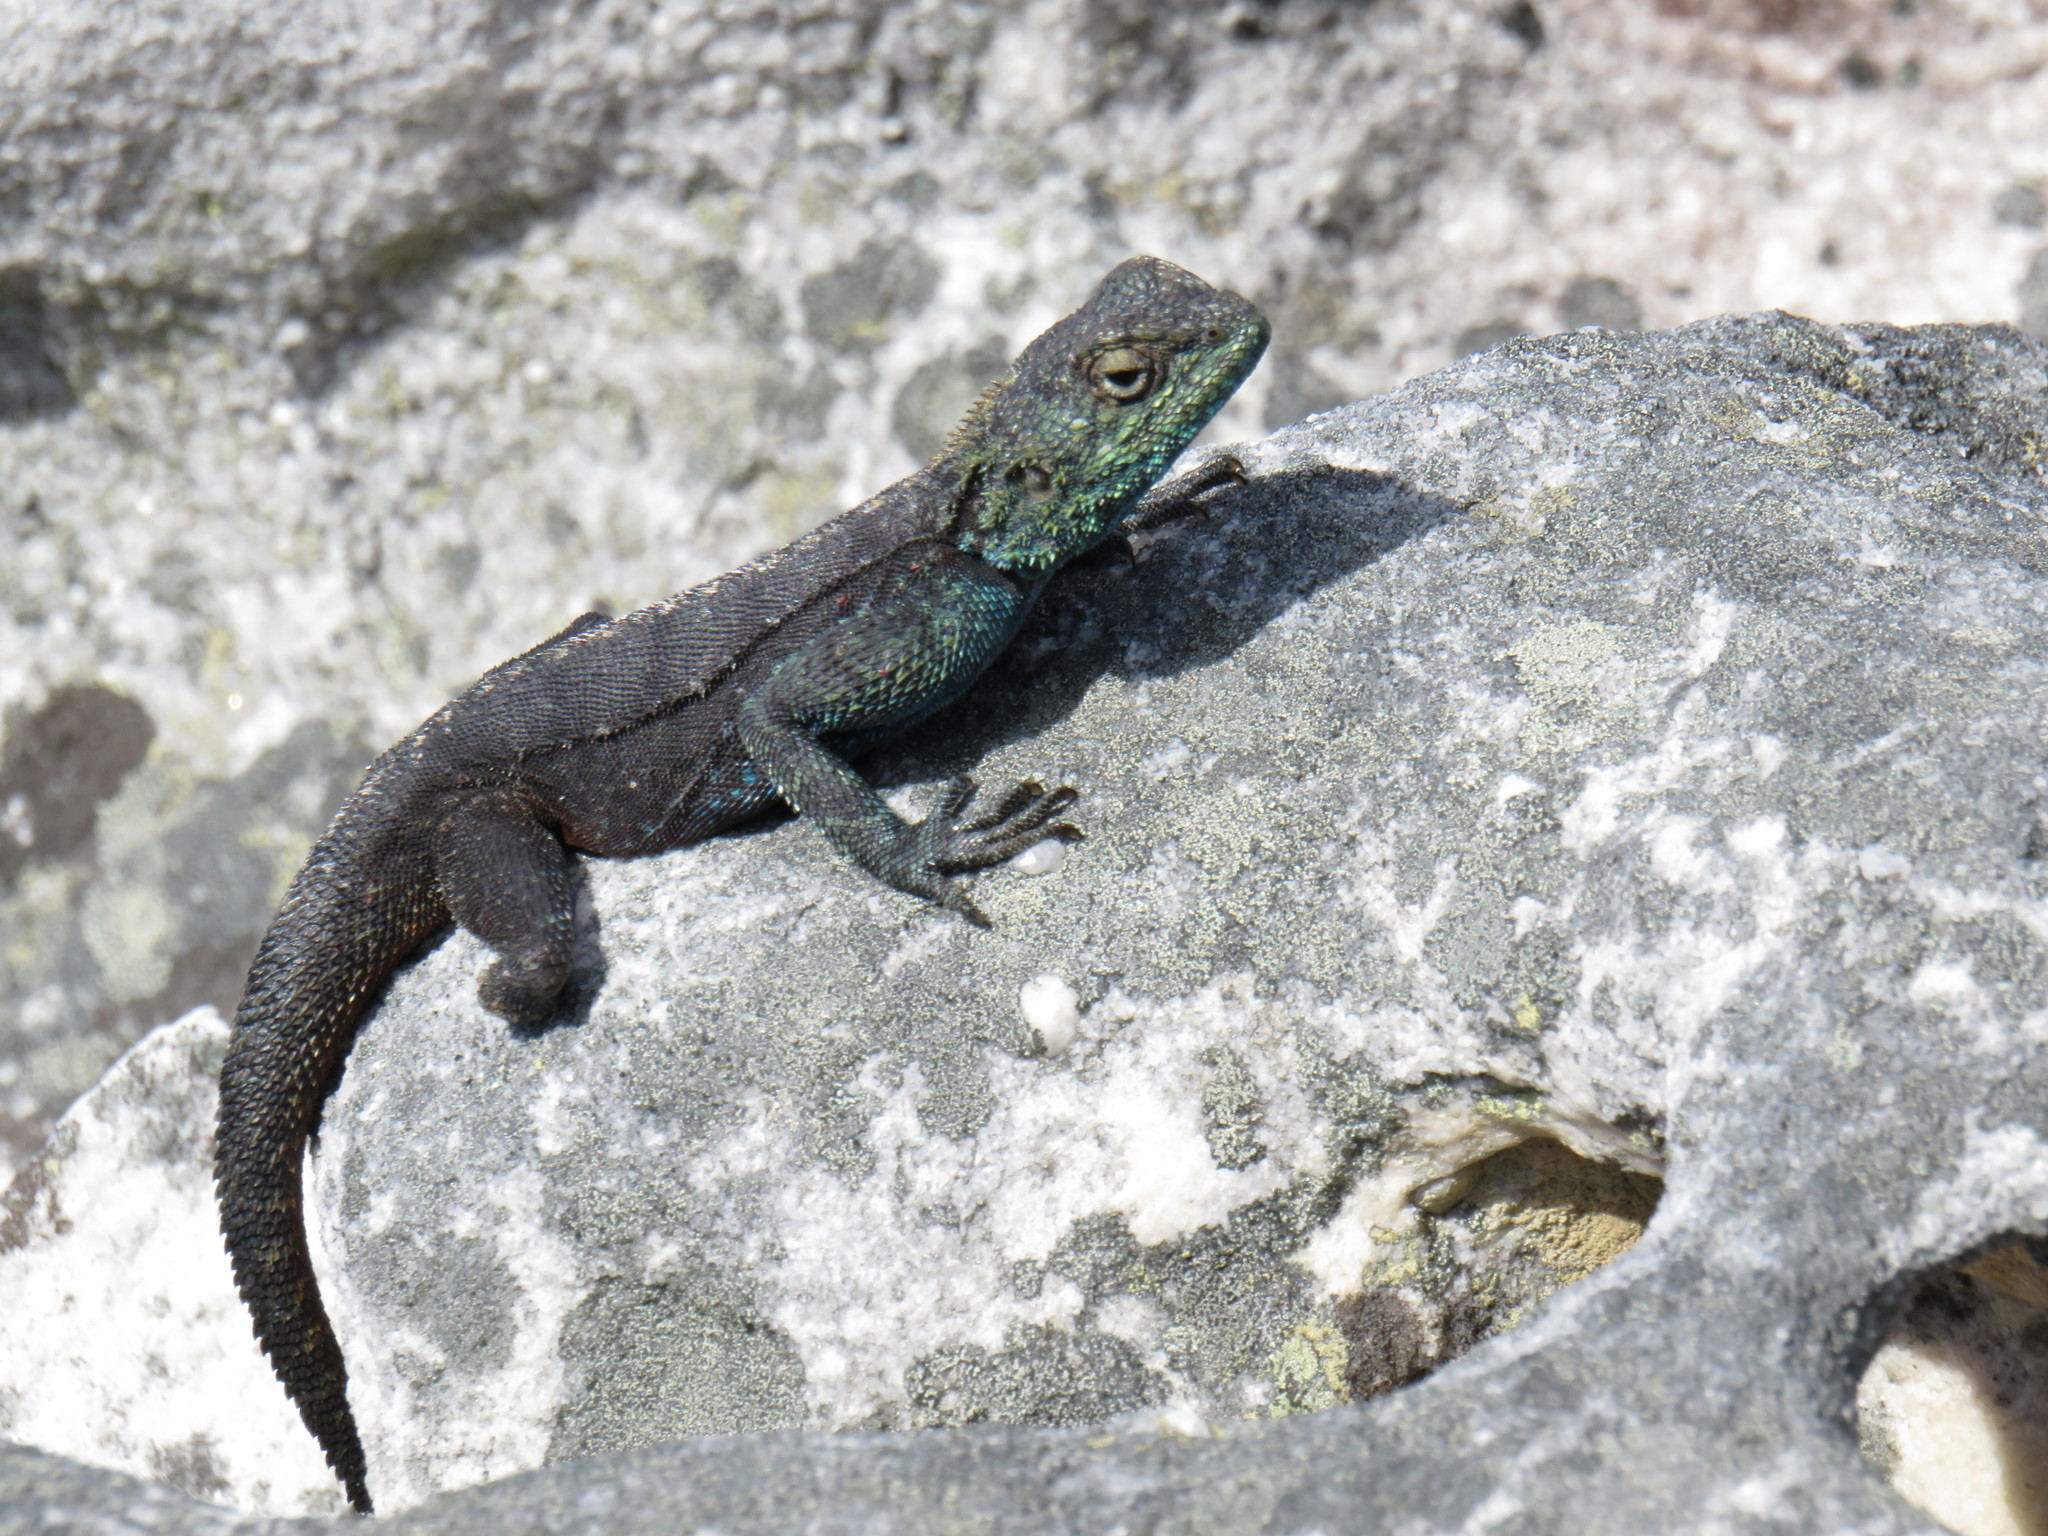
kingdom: Animalia
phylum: Chordata
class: Squamata
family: Agamidae
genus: Agama
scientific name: Agama atra
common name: Southern african rock agama
